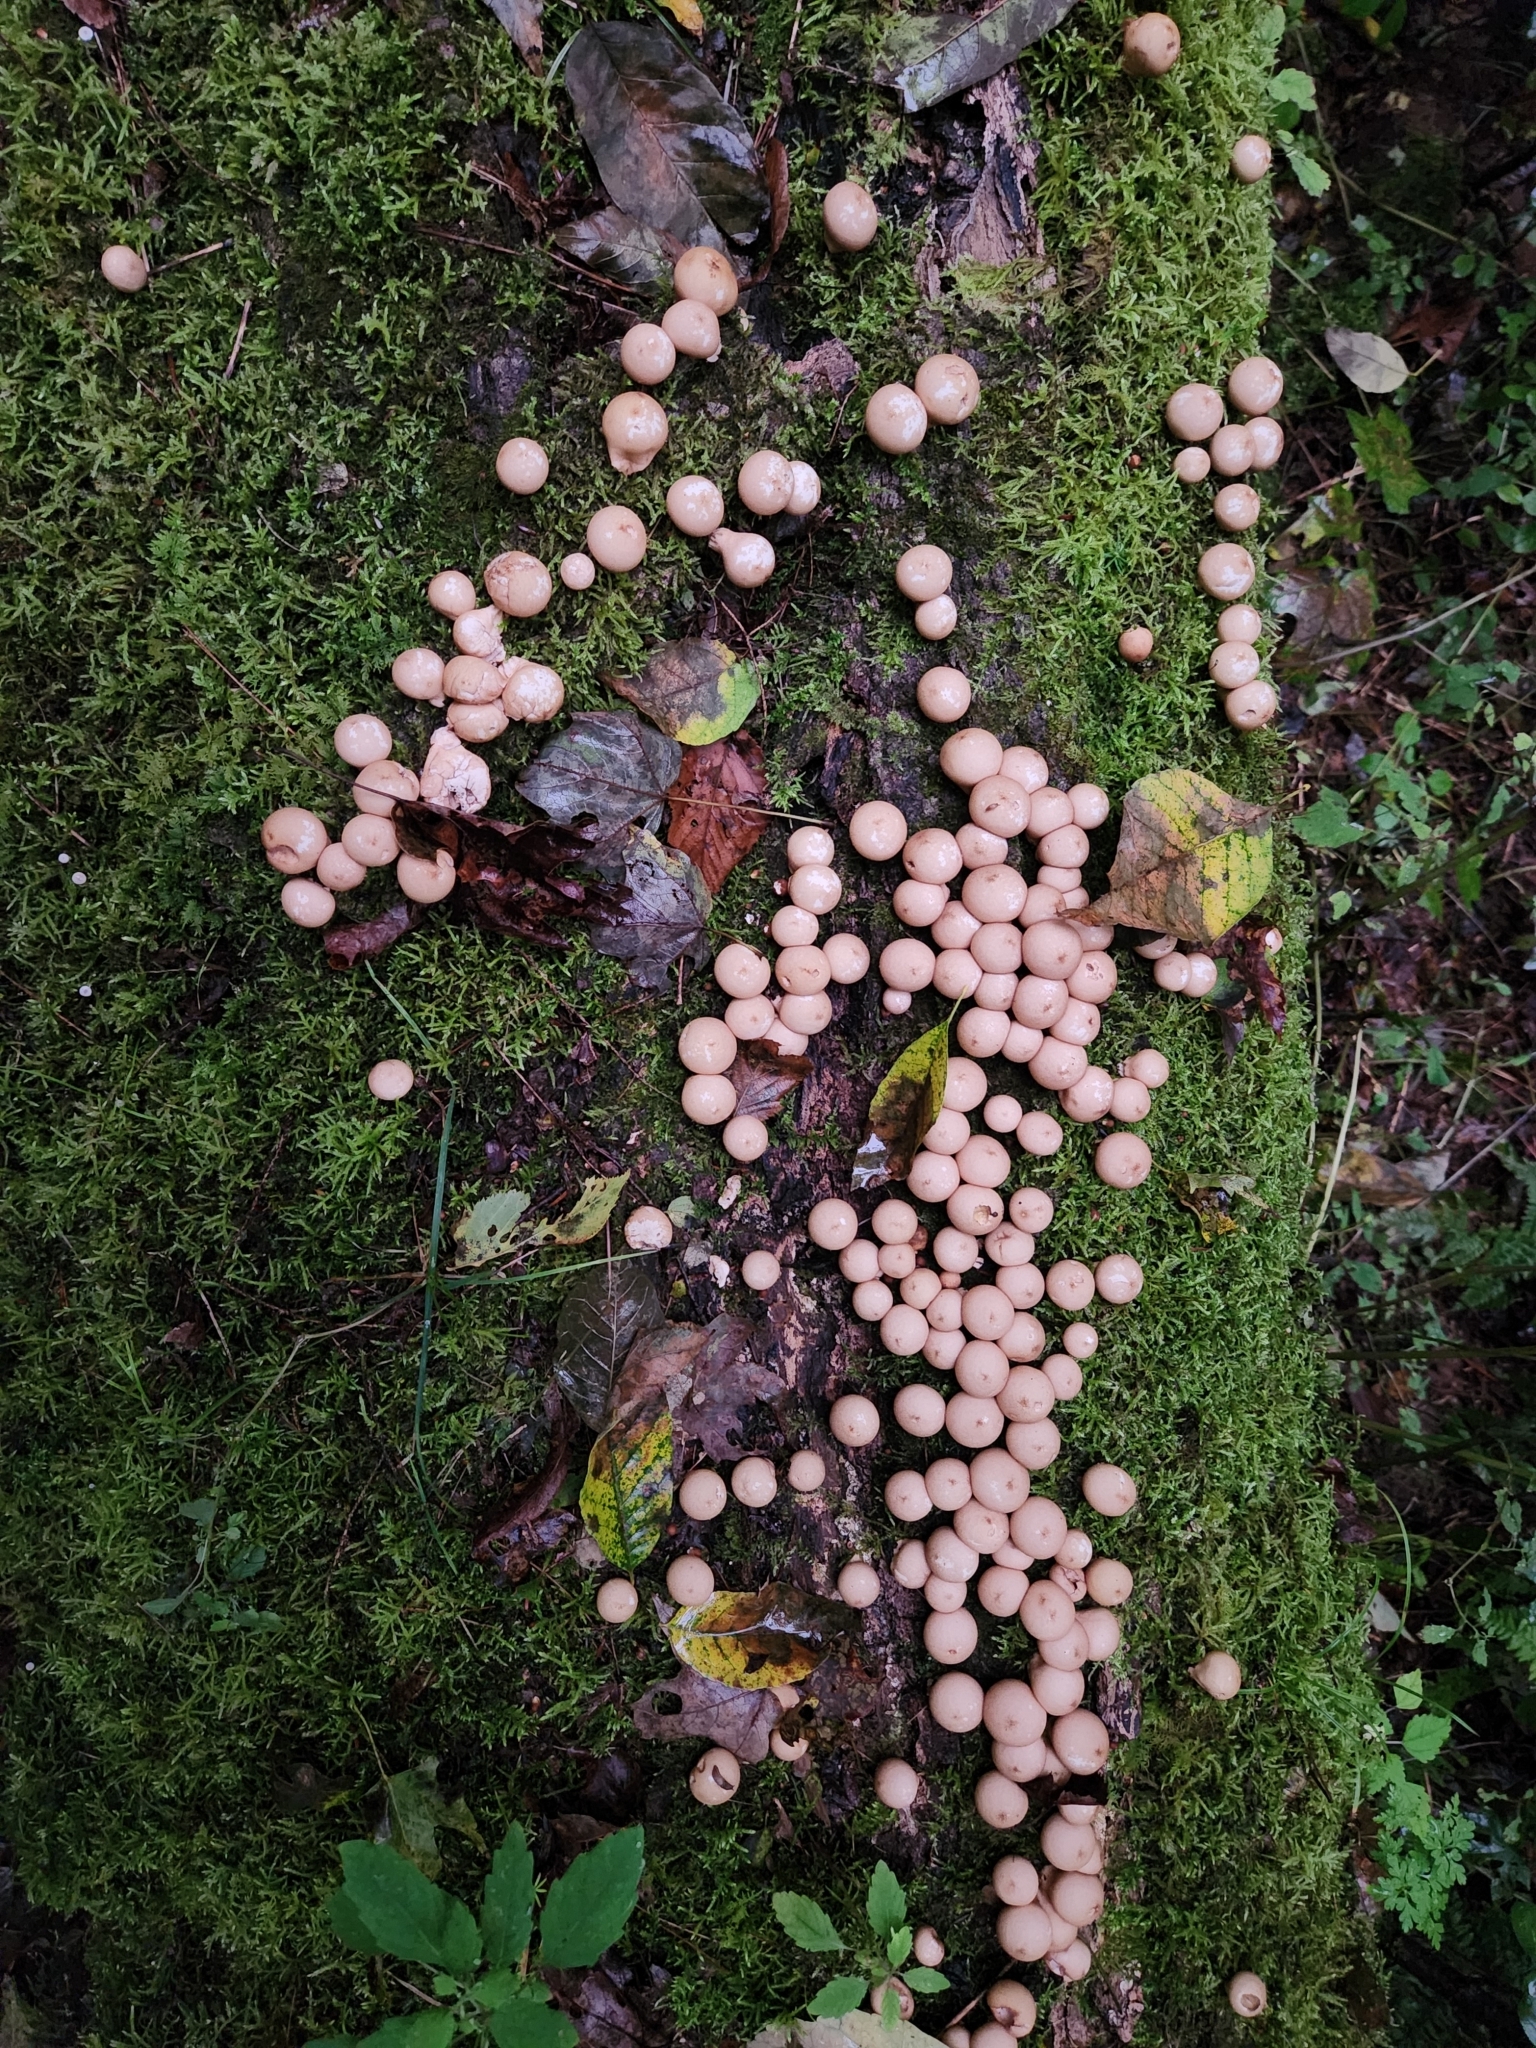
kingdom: Fungi
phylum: Basidiomycota
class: Agaricomycetes
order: Agaricales
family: Lycoperdaceae
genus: Apioperdon
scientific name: Apioperdon pyriforme
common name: Pear-shaped puffball
